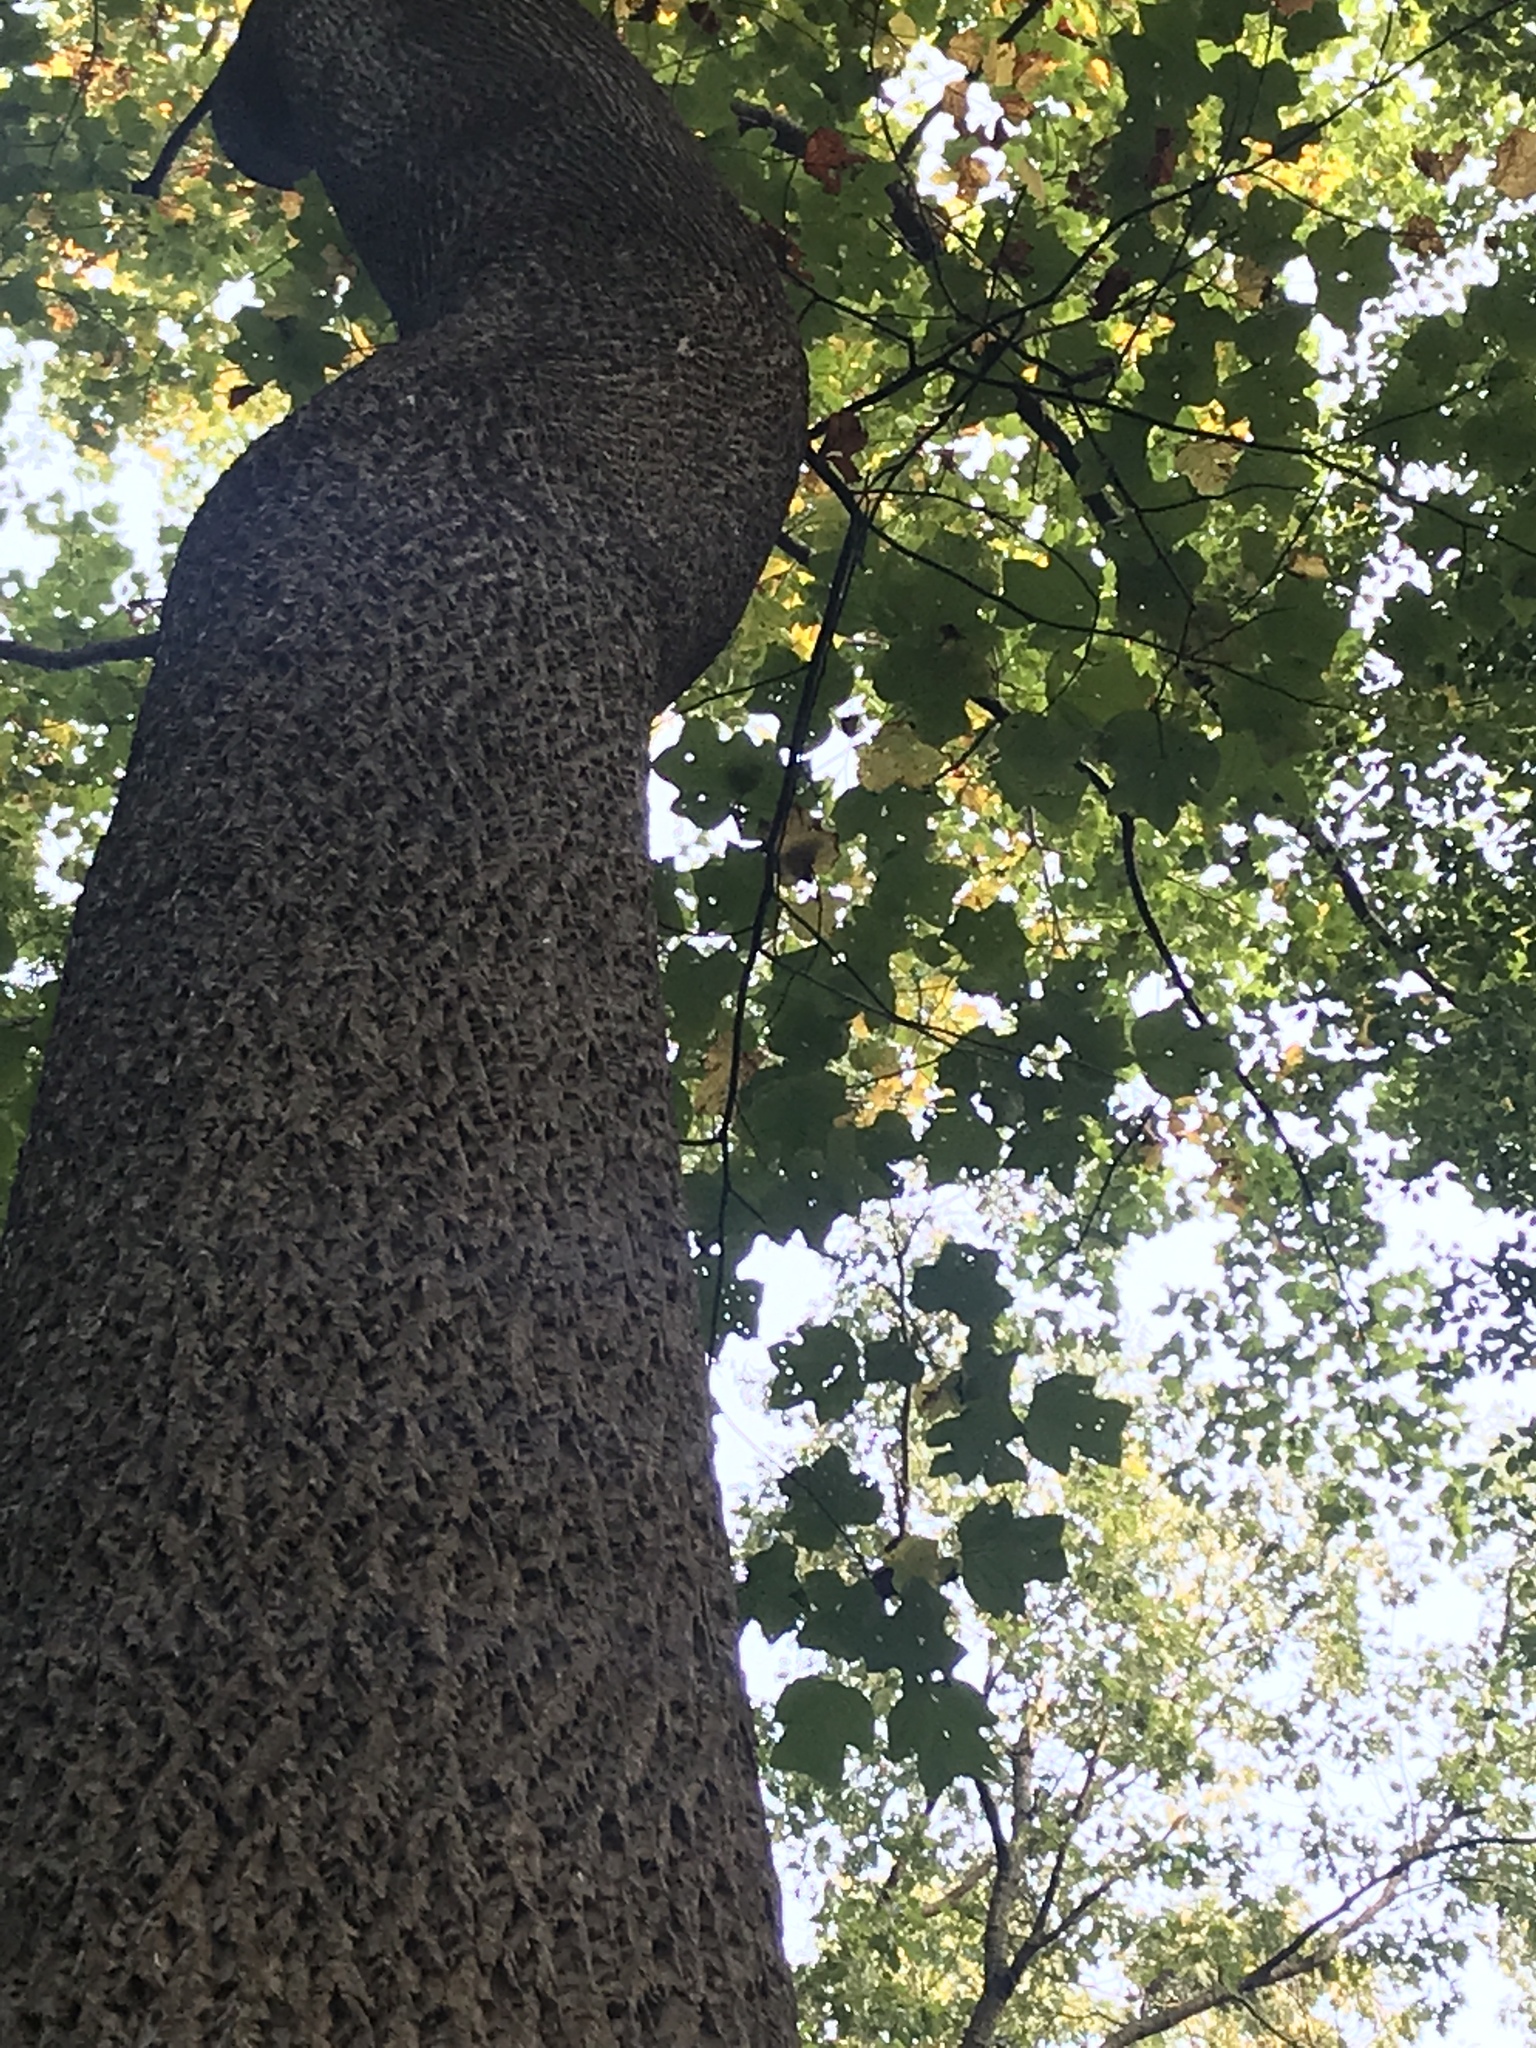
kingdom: Plantae
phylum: Tracheophyta
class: Magnoliopsida
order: Magnoliales
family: Magnoliaceae
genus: Liriodendron
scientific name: Liriodendron tulipifera
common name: Tulip tree
